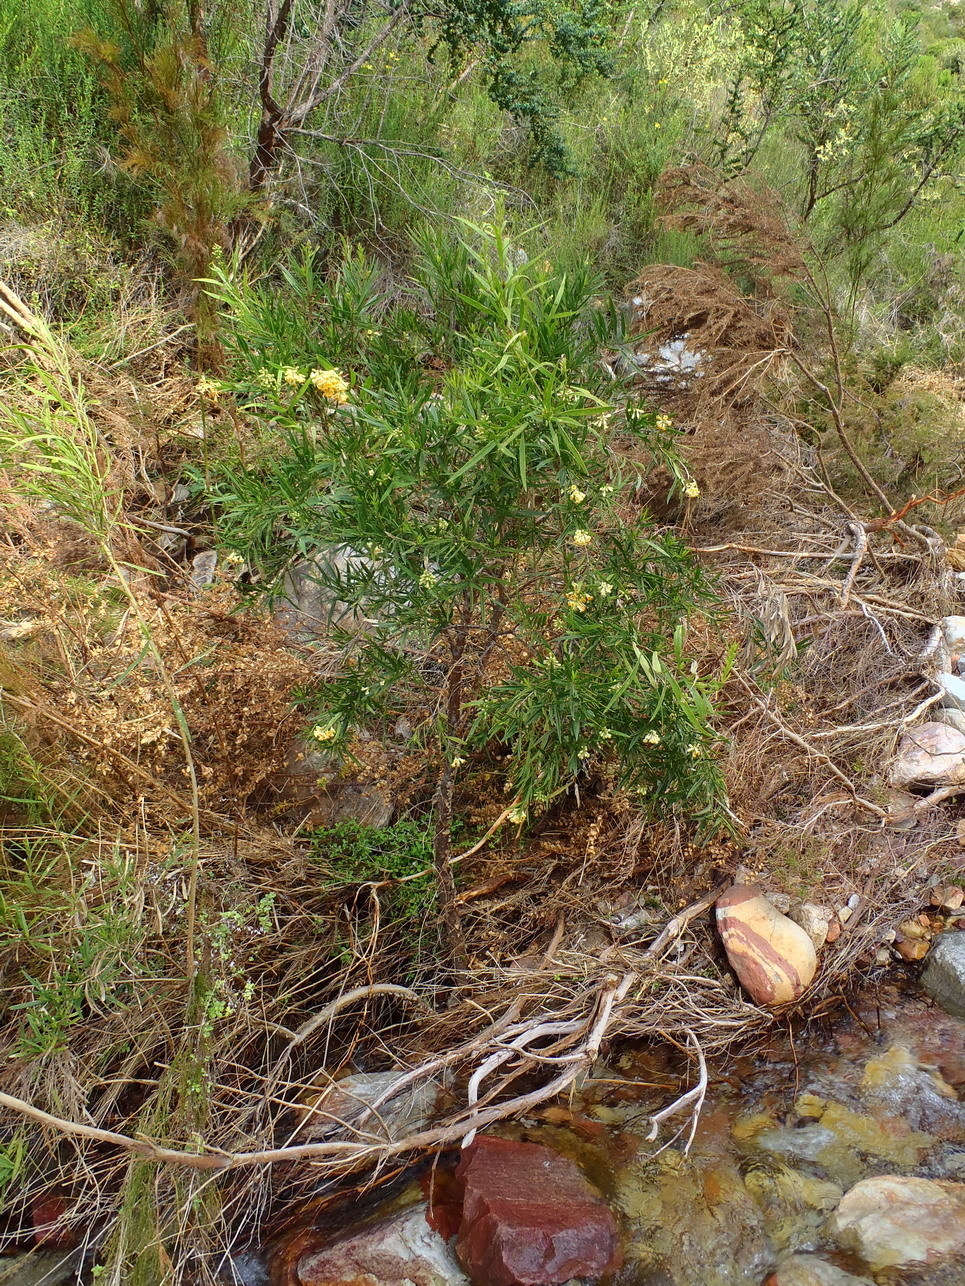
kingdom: Plantae
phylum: Tracheophyta
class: Magnoliopsida
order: Lamiales
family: Scrophulariaceae
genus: Freylinia
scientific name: Freylinia lanceolata
